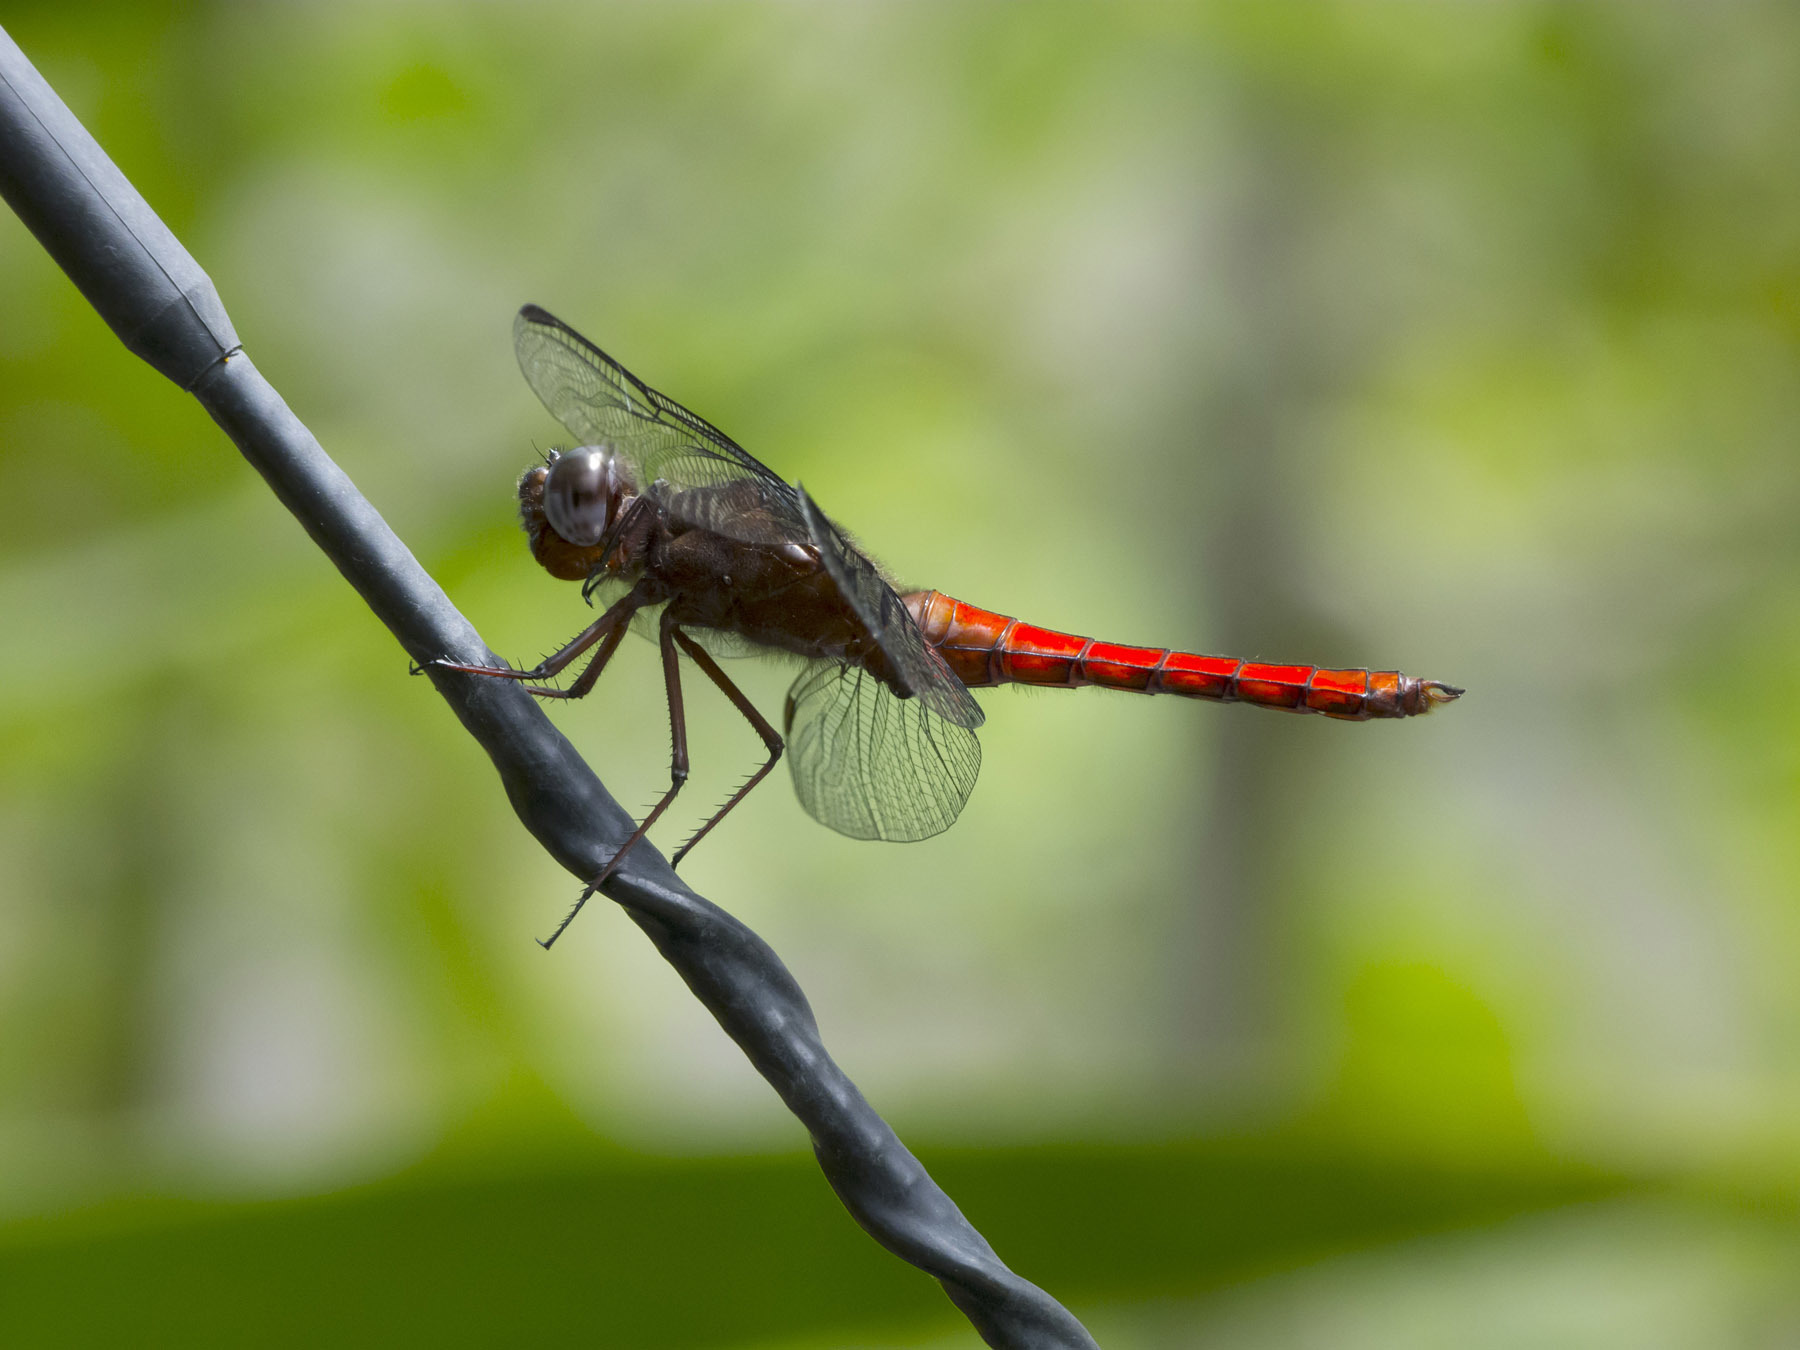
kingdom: Animalia
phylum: Arthropoda
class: Insecta
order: Odonata
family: Libellulidae
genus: Libellula
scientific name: Libellula herculea
